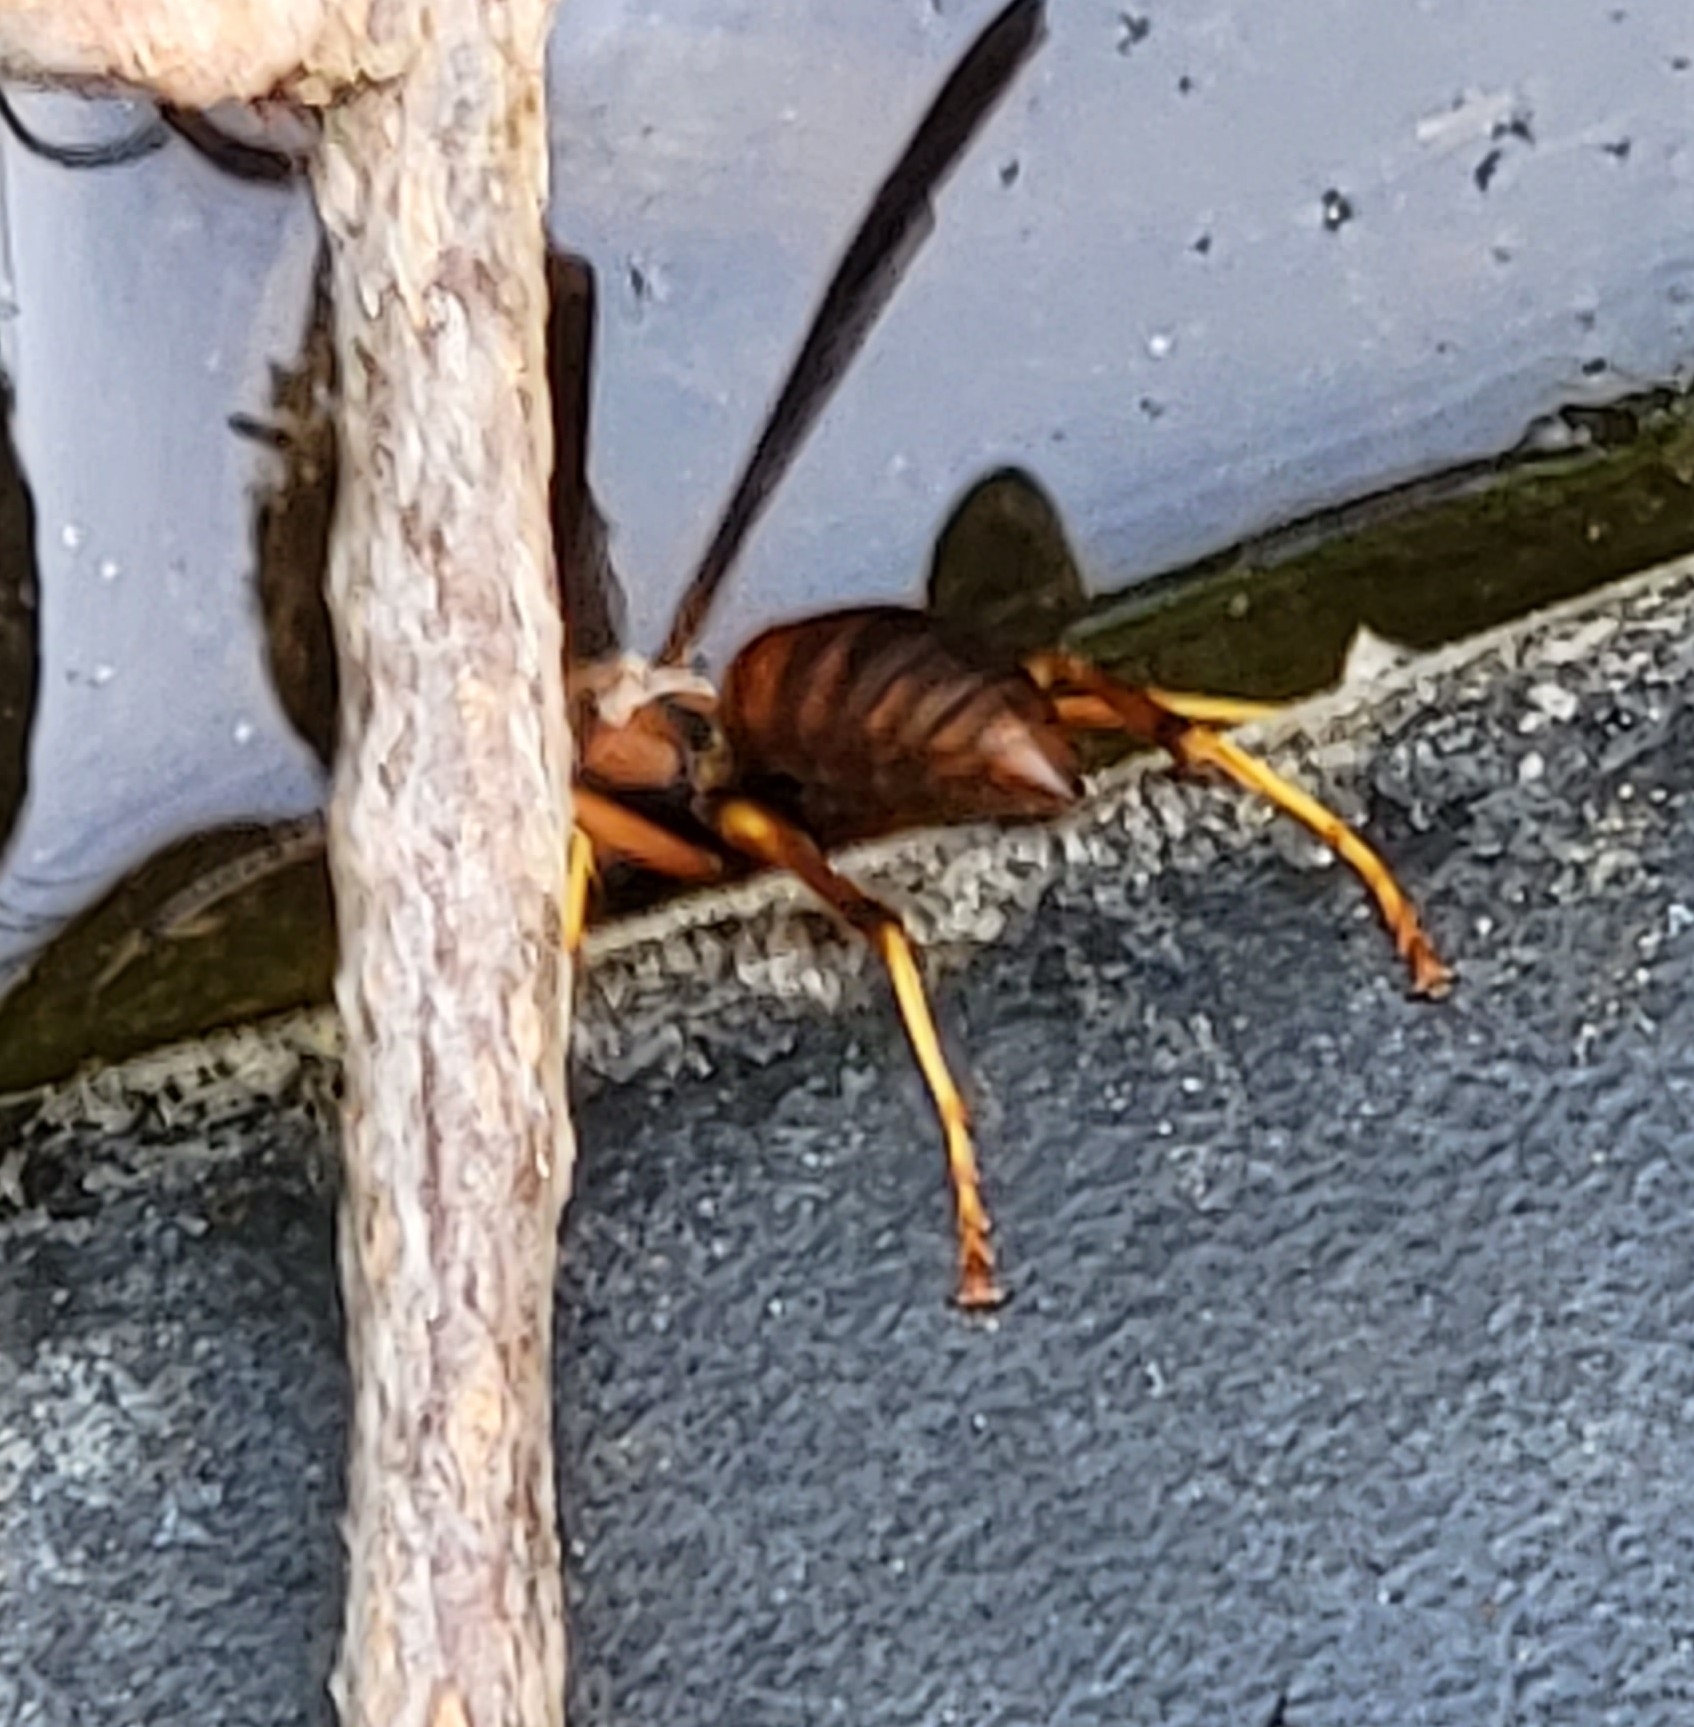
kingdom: Animalia
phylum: Arthropoda
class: Insecta
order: Hymenoptera
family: Eumenidae
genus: Polistes
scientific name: Polistes fuscatus
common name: Dark paper wasp
